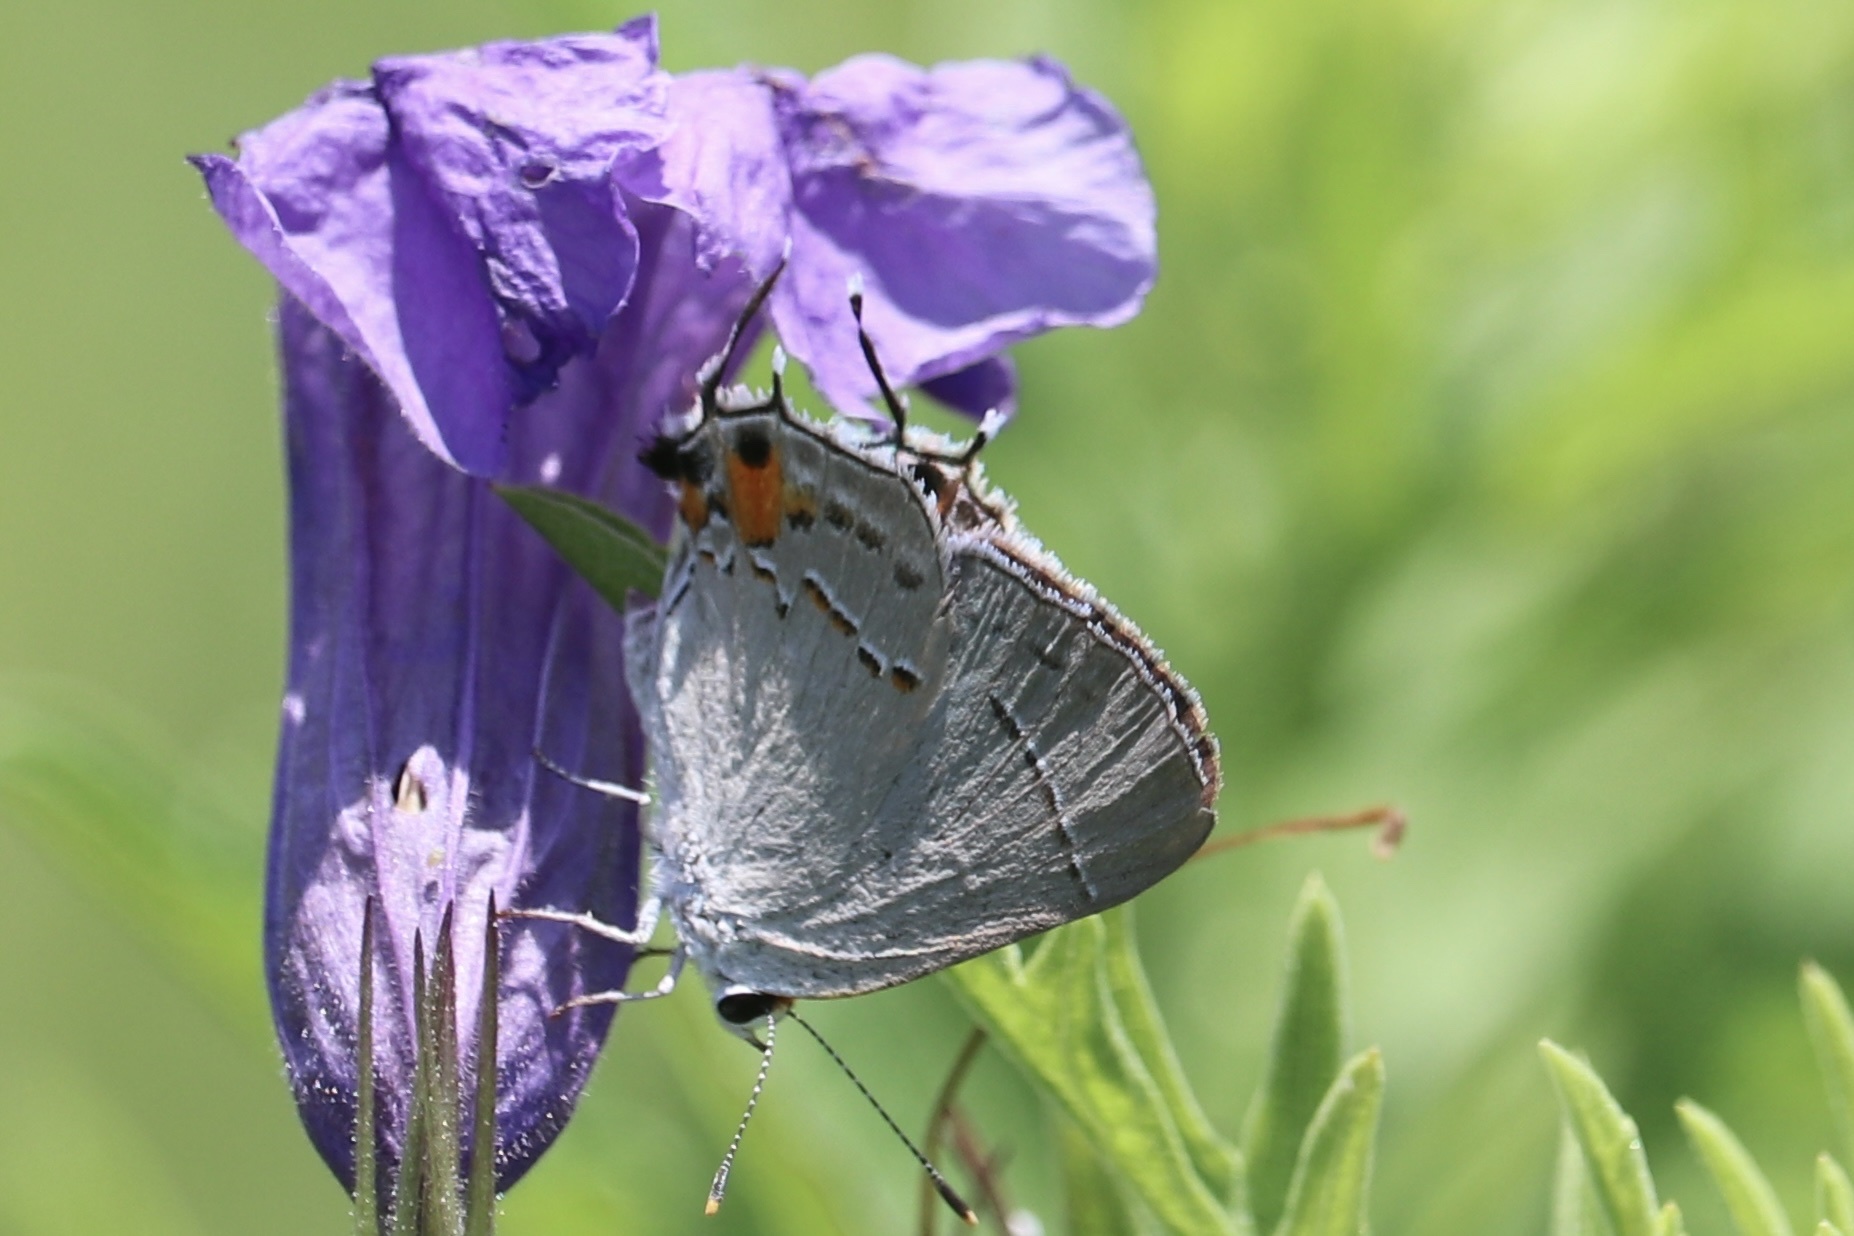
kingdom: Animalia
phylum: Arthropoda
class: Insecta
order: Lepidoptera
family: Lycaenidae
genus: Strymon
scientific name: Strymon melinus
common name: Gray hairstreak
